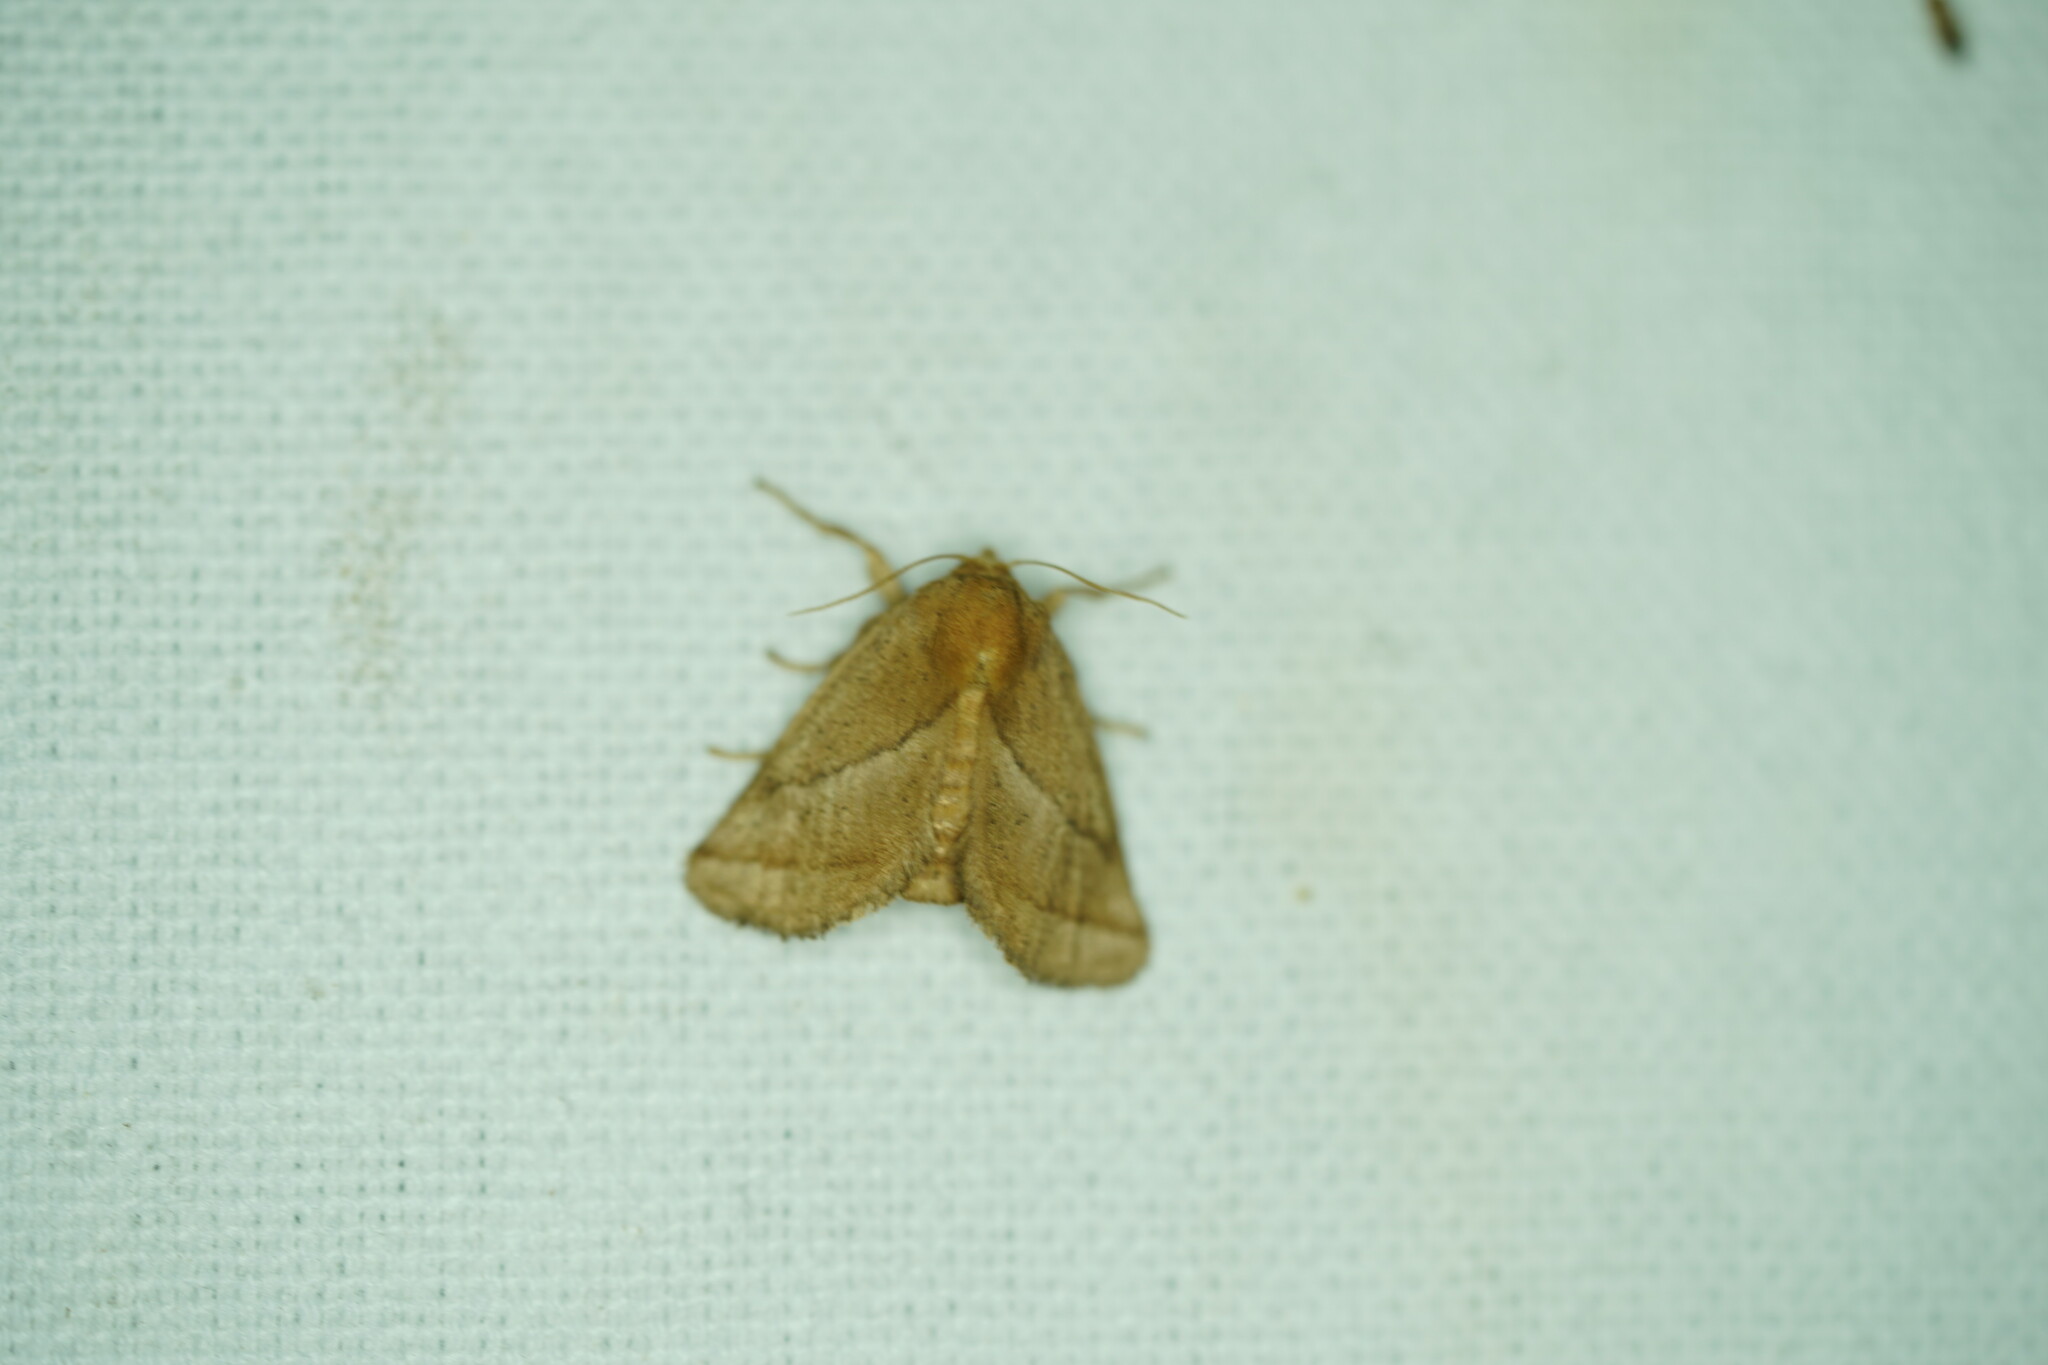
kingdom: Animalia
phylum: Arthropoda
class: Insecta
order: Lepidoptera
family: Limacodidae
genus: Natada
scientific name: Natada nasoni
